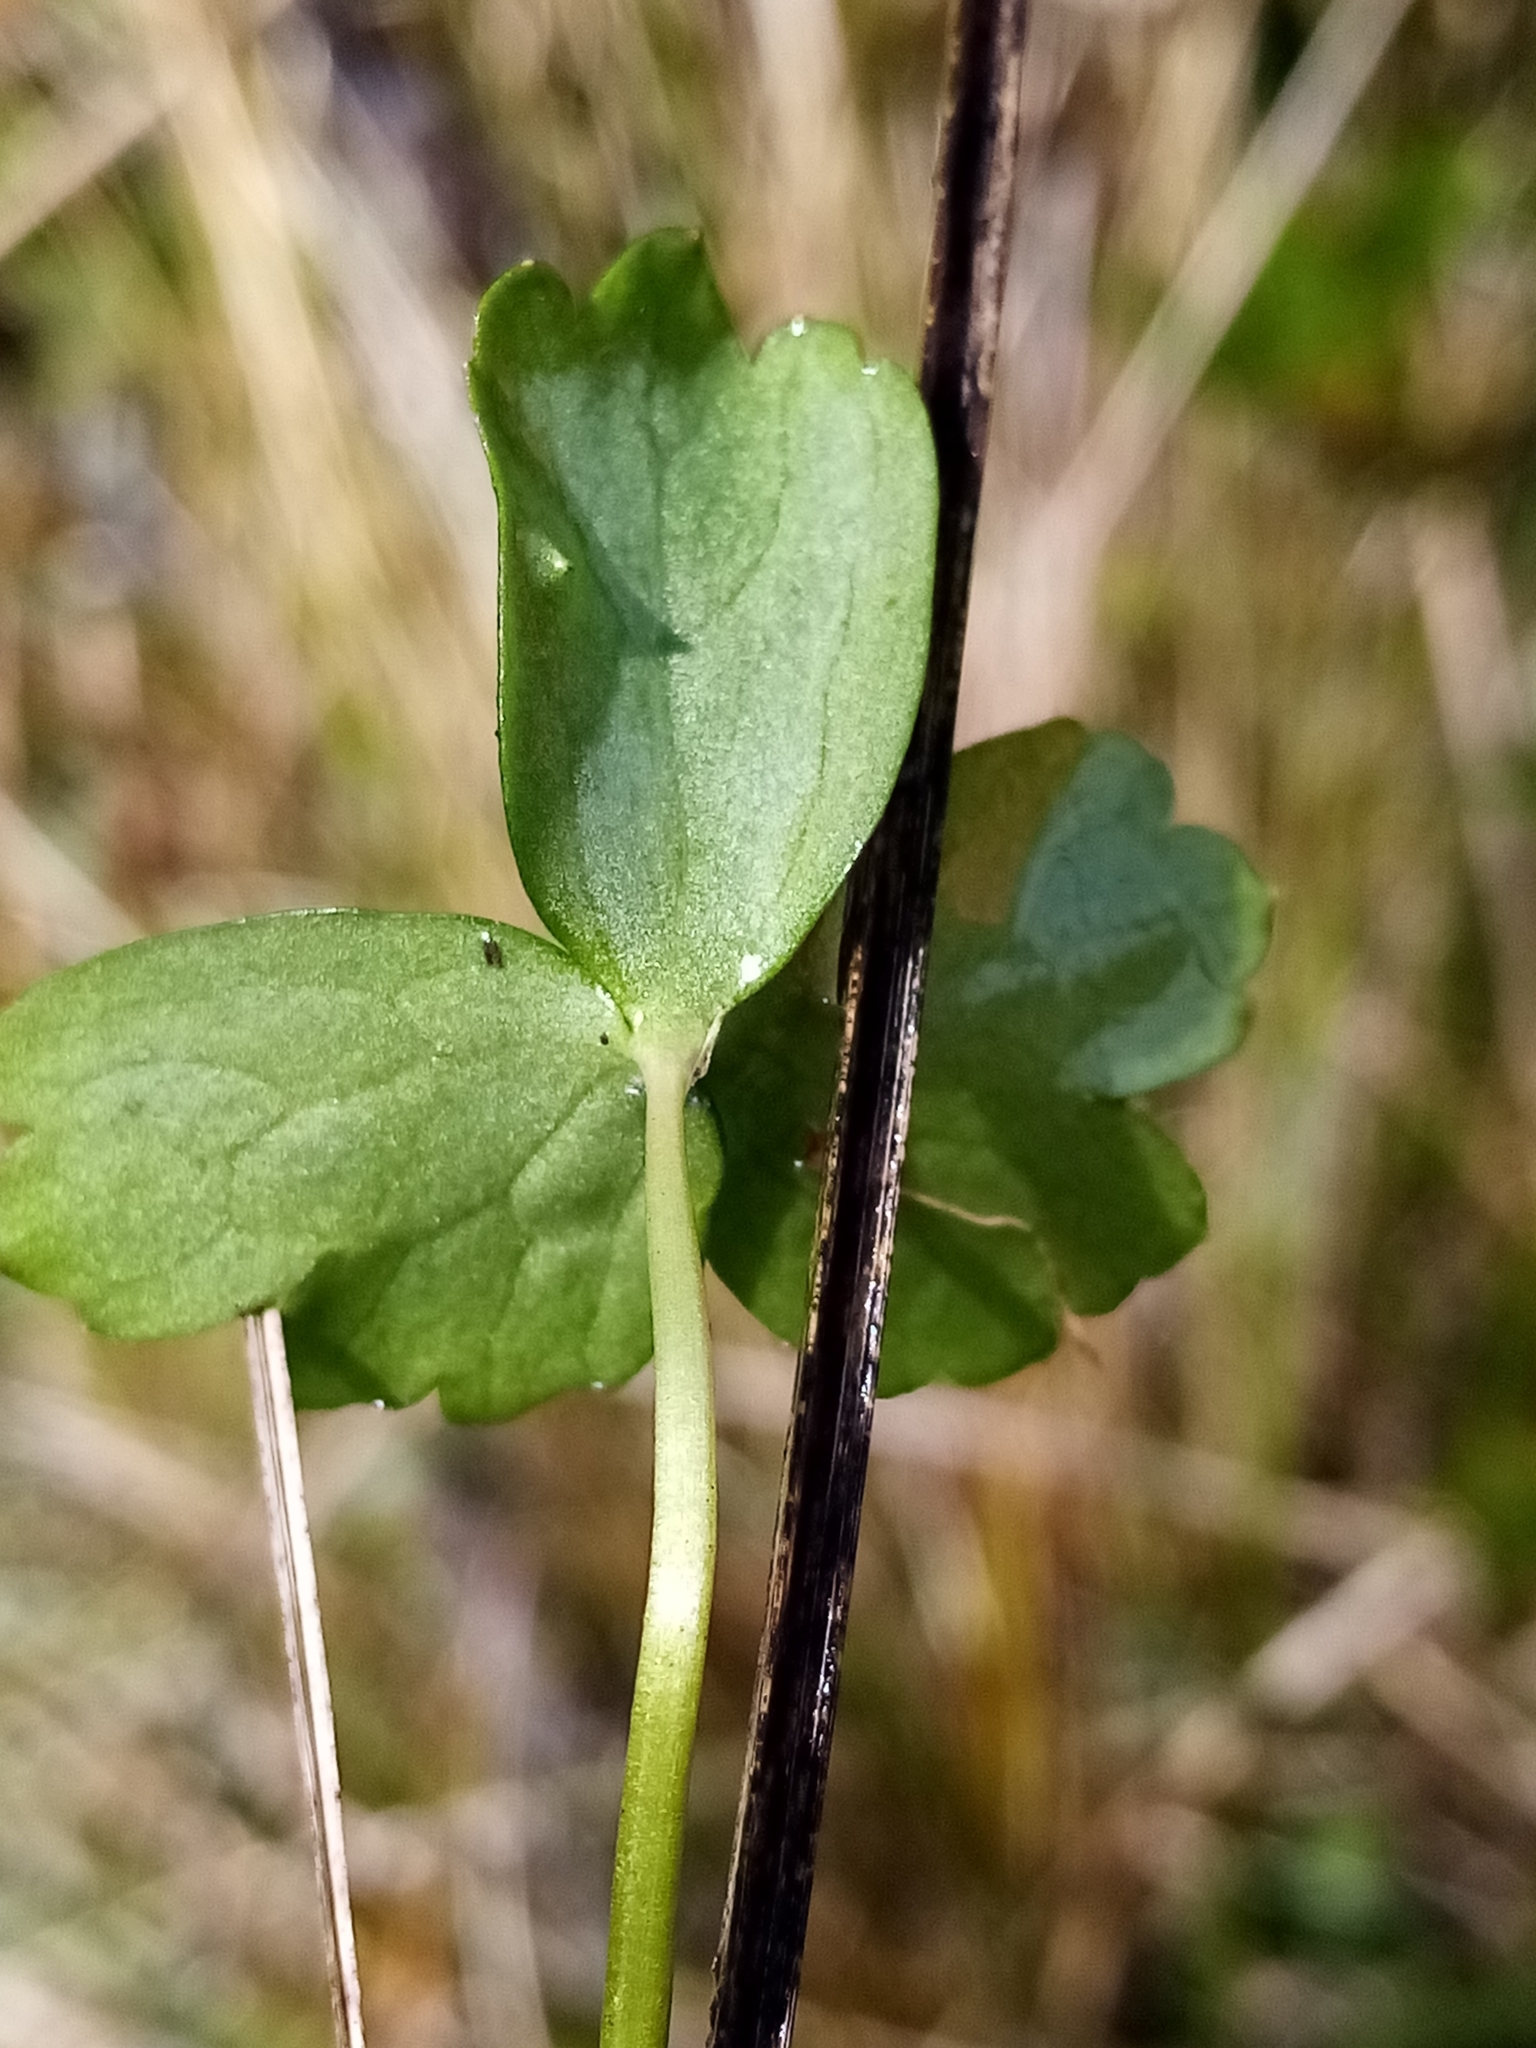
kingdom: Plantae
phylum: Tracheophyta
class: Magnoliopsida
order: Ranunculales
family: Ranunculaceae
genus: Ranunculus
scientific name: Ranunculus macropus
